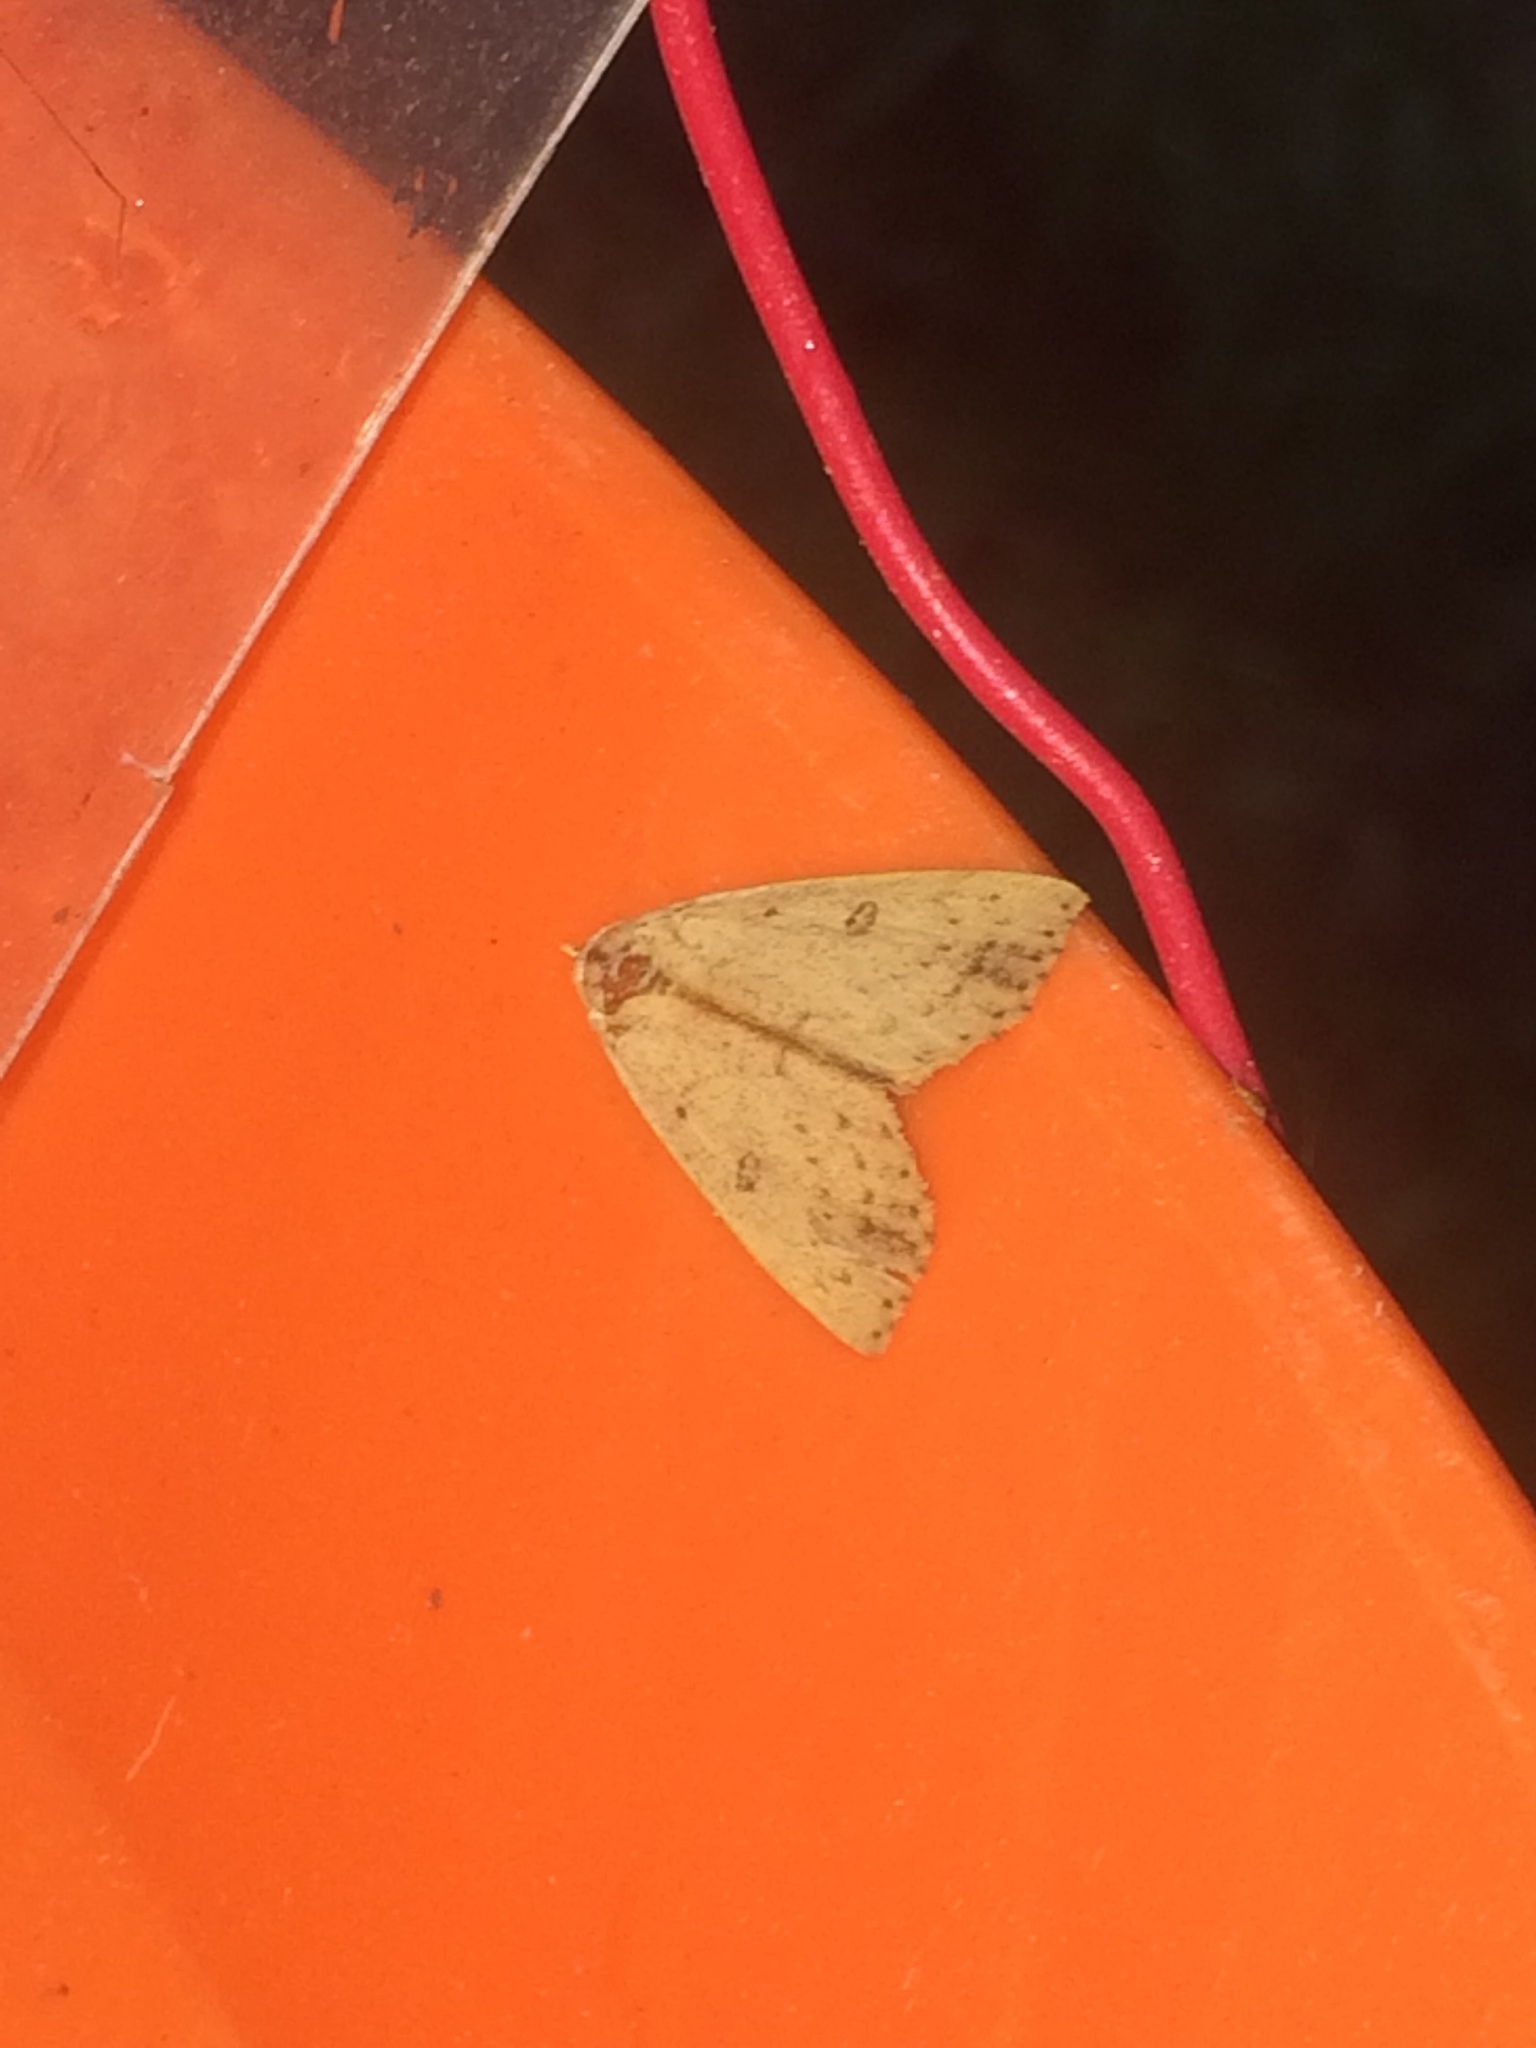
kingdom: Animalia
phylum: Arthropoda
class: Insecta
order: Lepidoptera
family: Erebidae
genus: Scolecocampa
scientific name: Scolecocampa liburna
